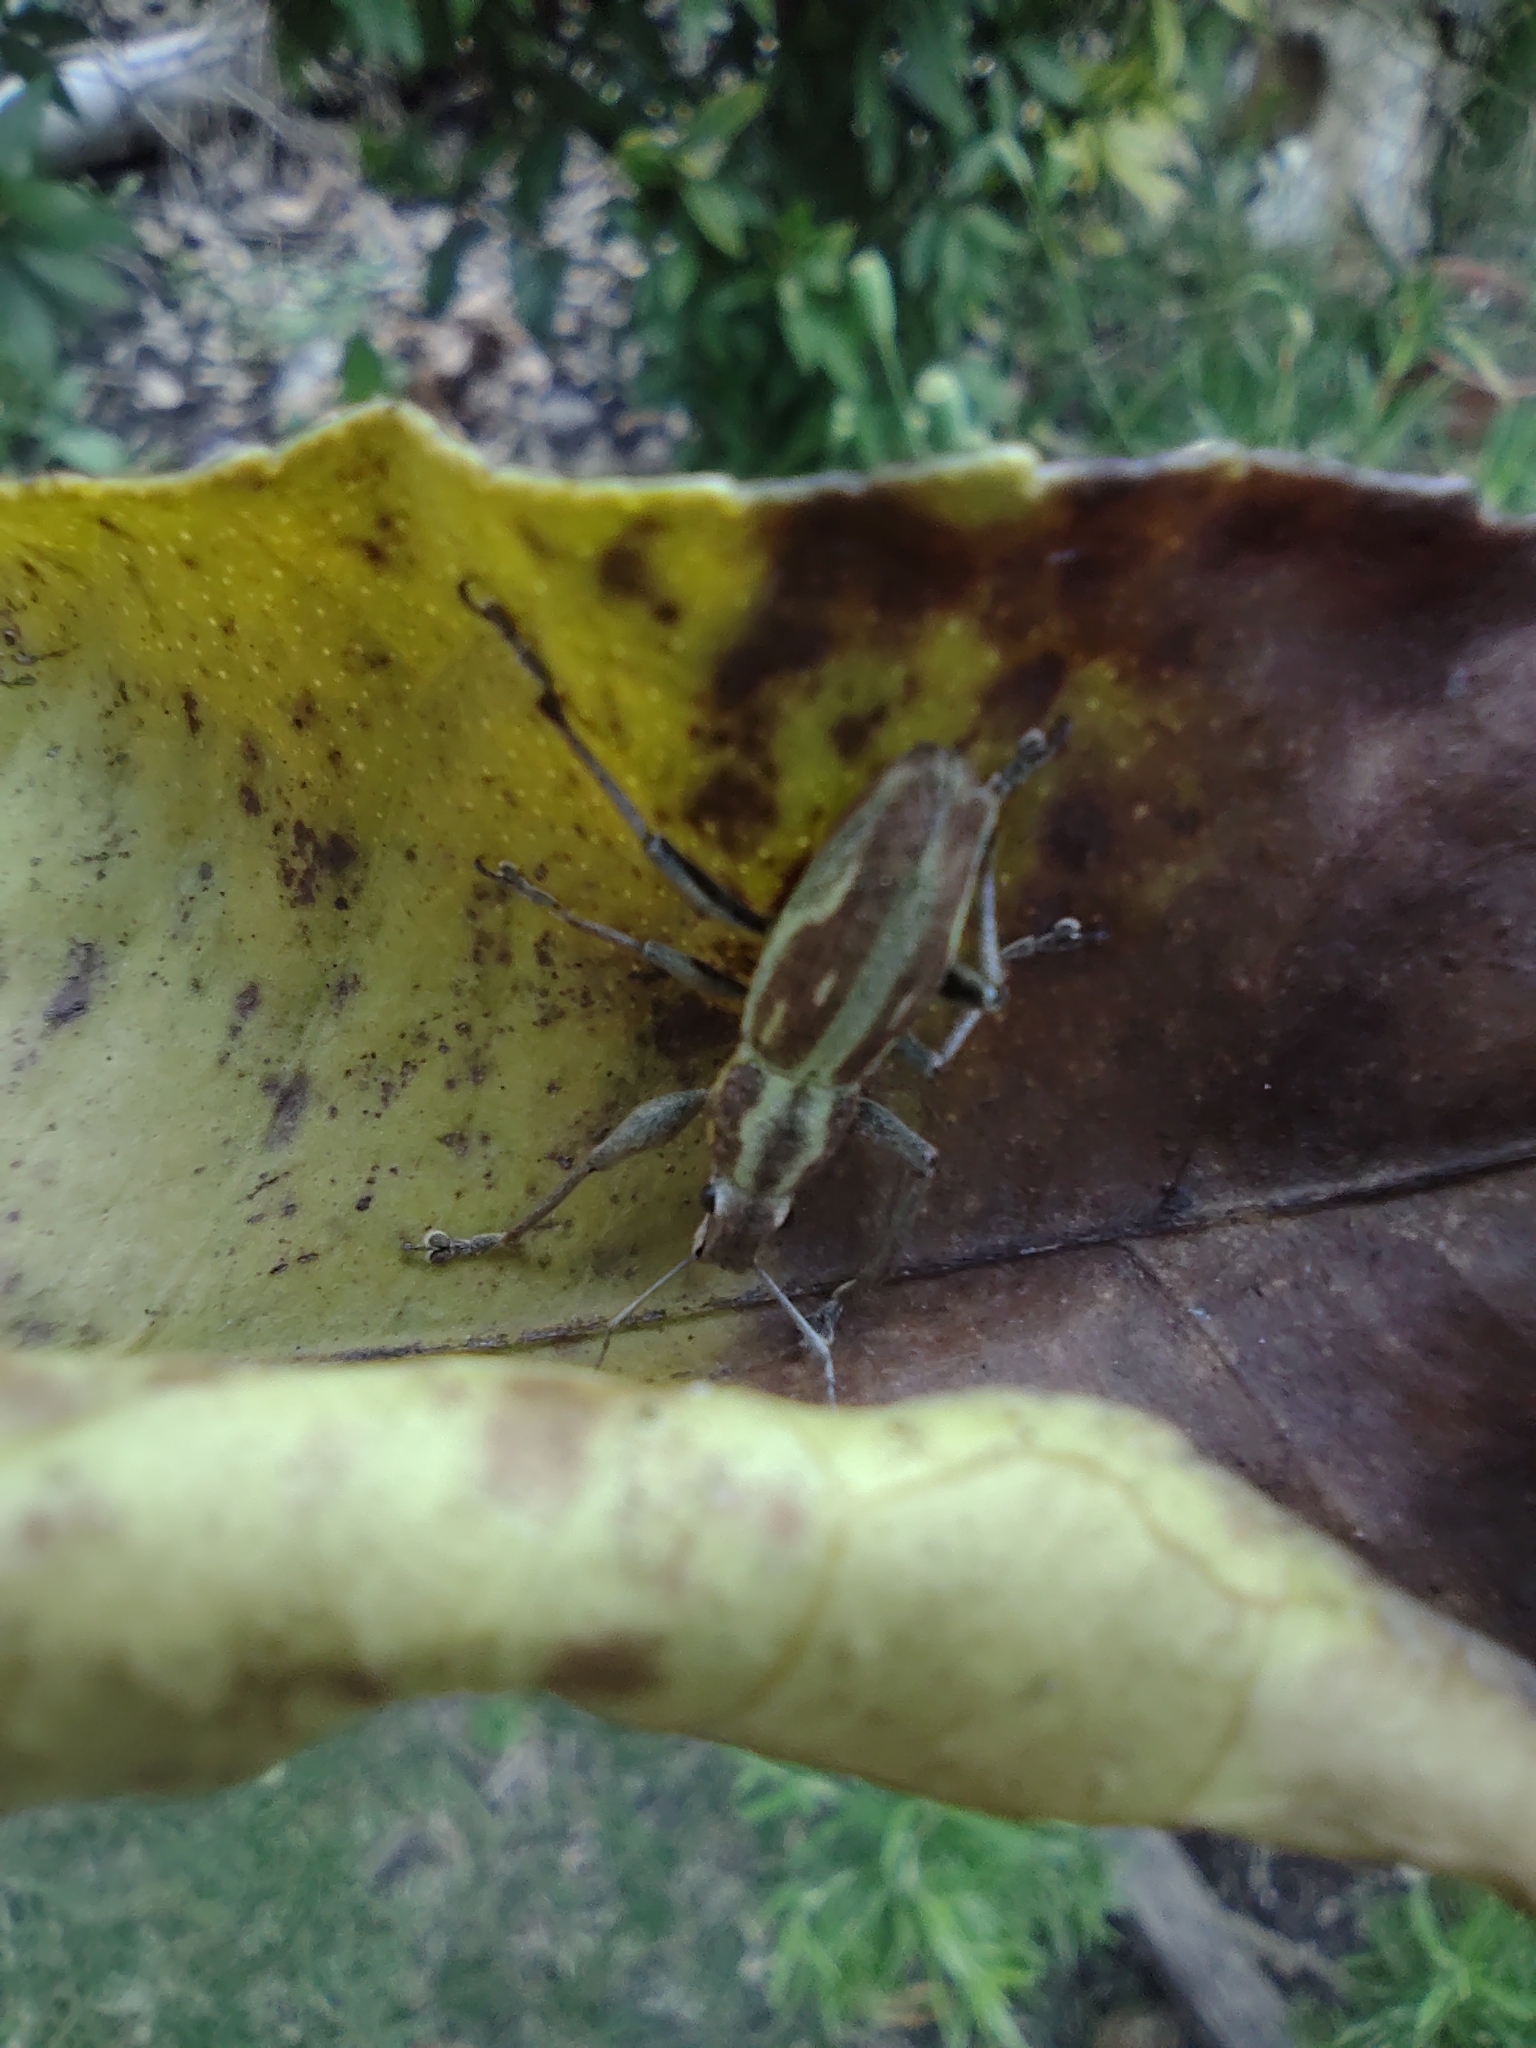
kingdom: Animalia
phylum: Arthropoda
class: Insecta
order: Coleoptera
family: Curculionidae
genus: Naupactus
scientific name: Naupactus xanthographus
